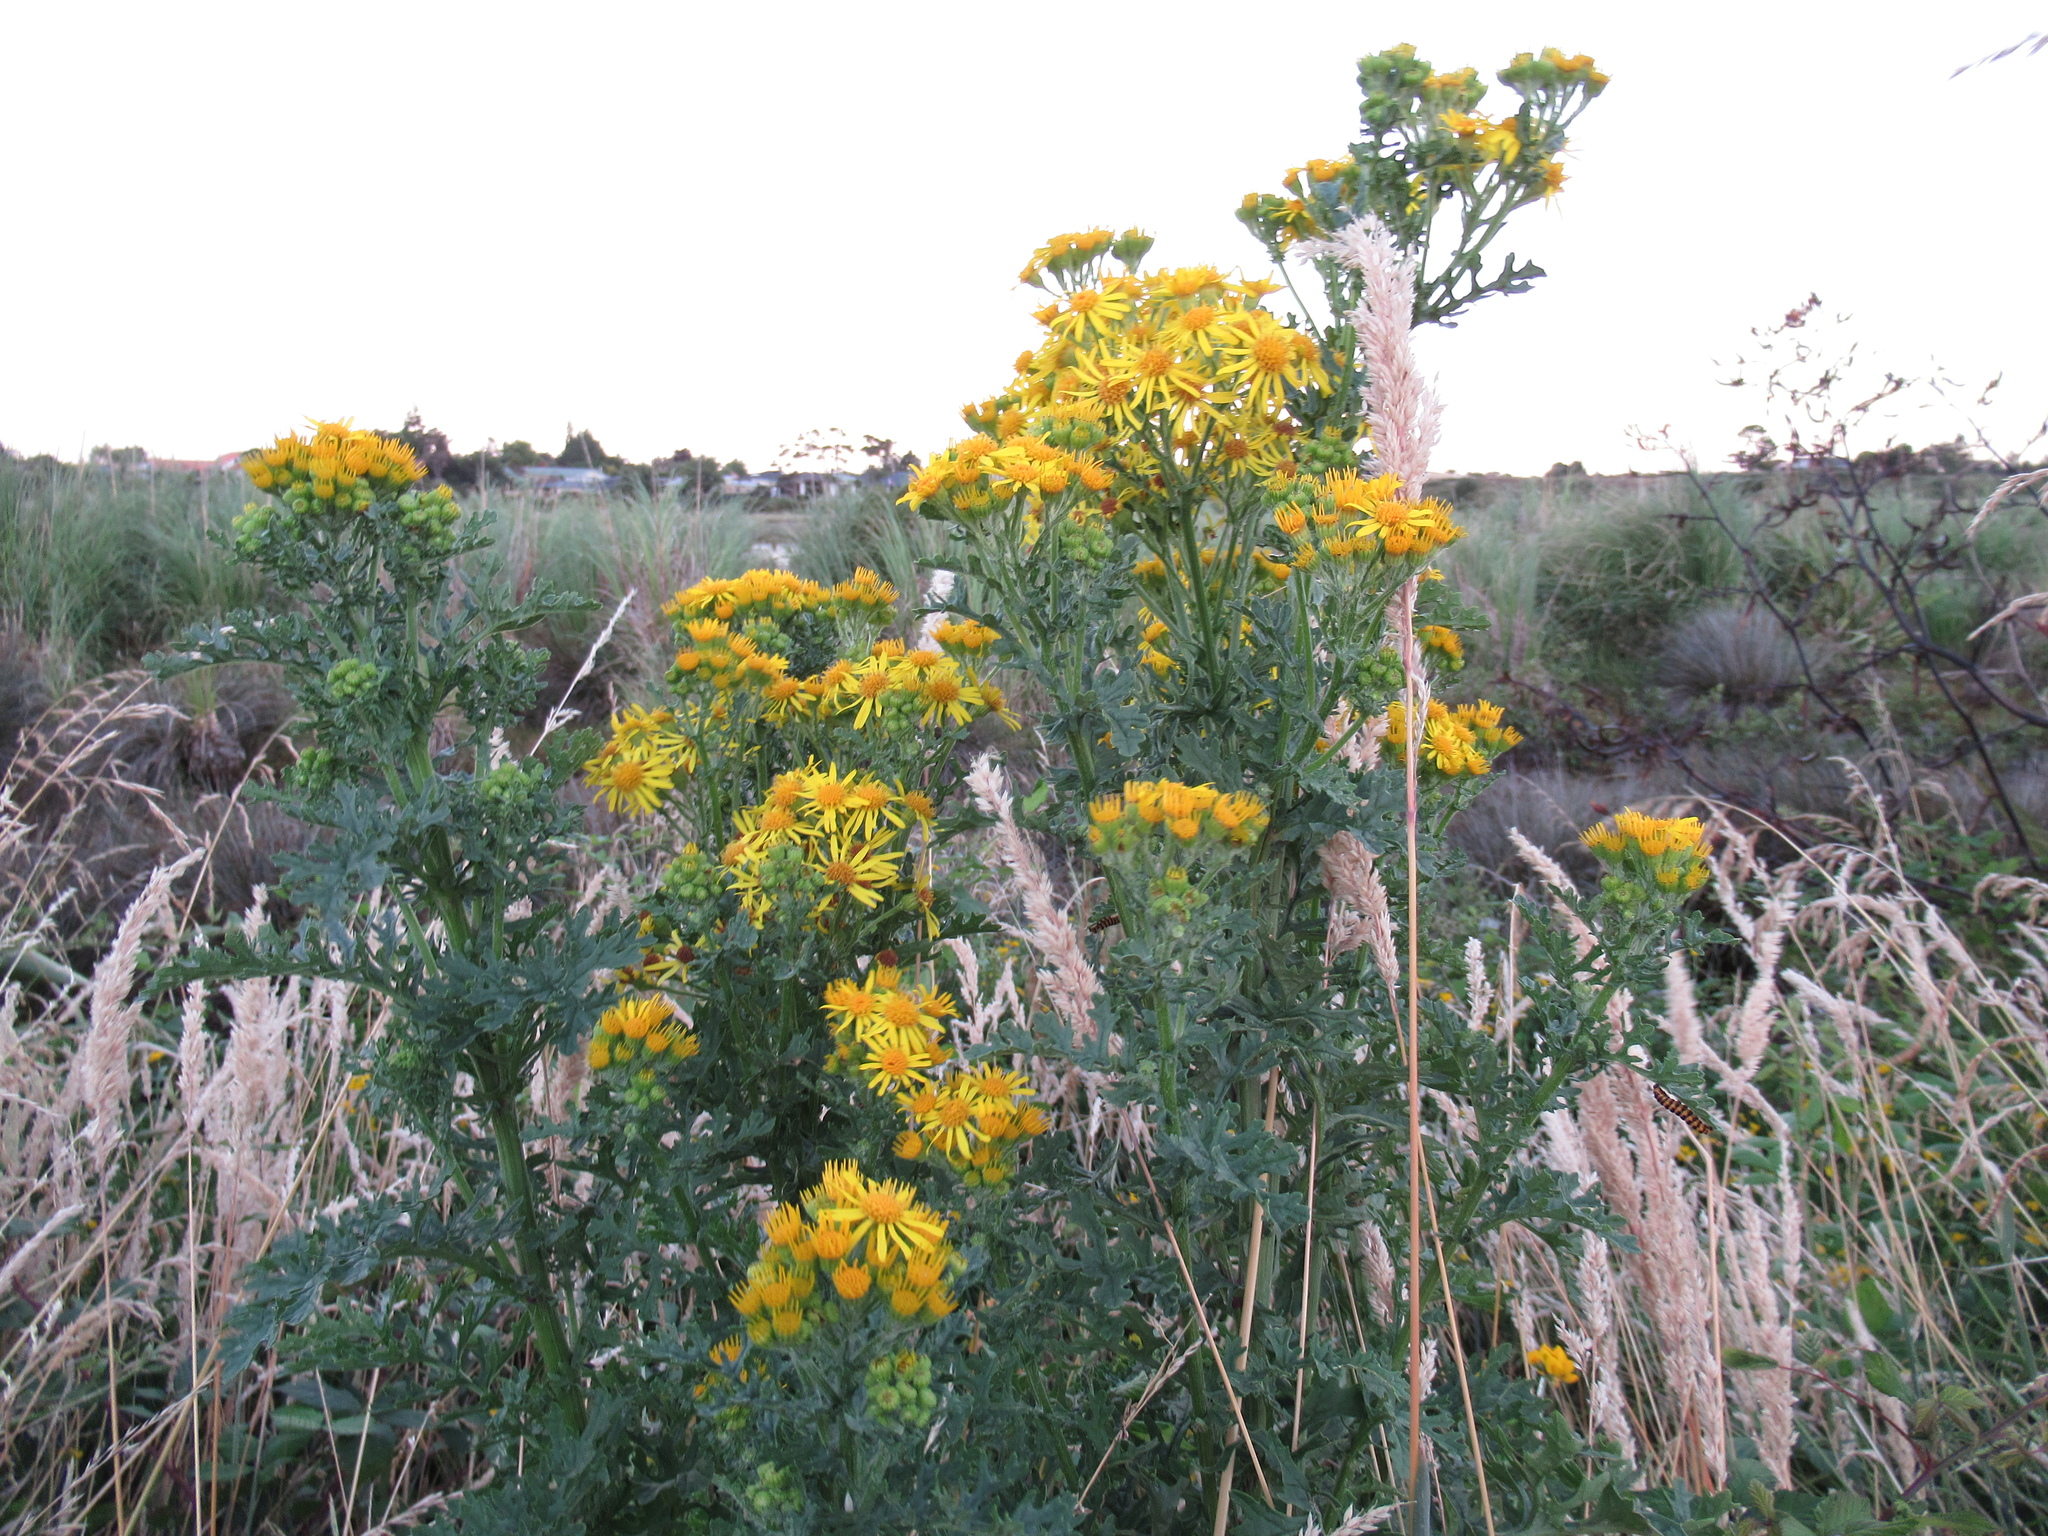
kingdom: Plantae
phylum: Tracheophyta
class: Magnoliopsida
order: Asterales
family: Asteraceae
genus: Jacobaea
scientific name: Jacobaea vulgaris
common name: Stinking willie
